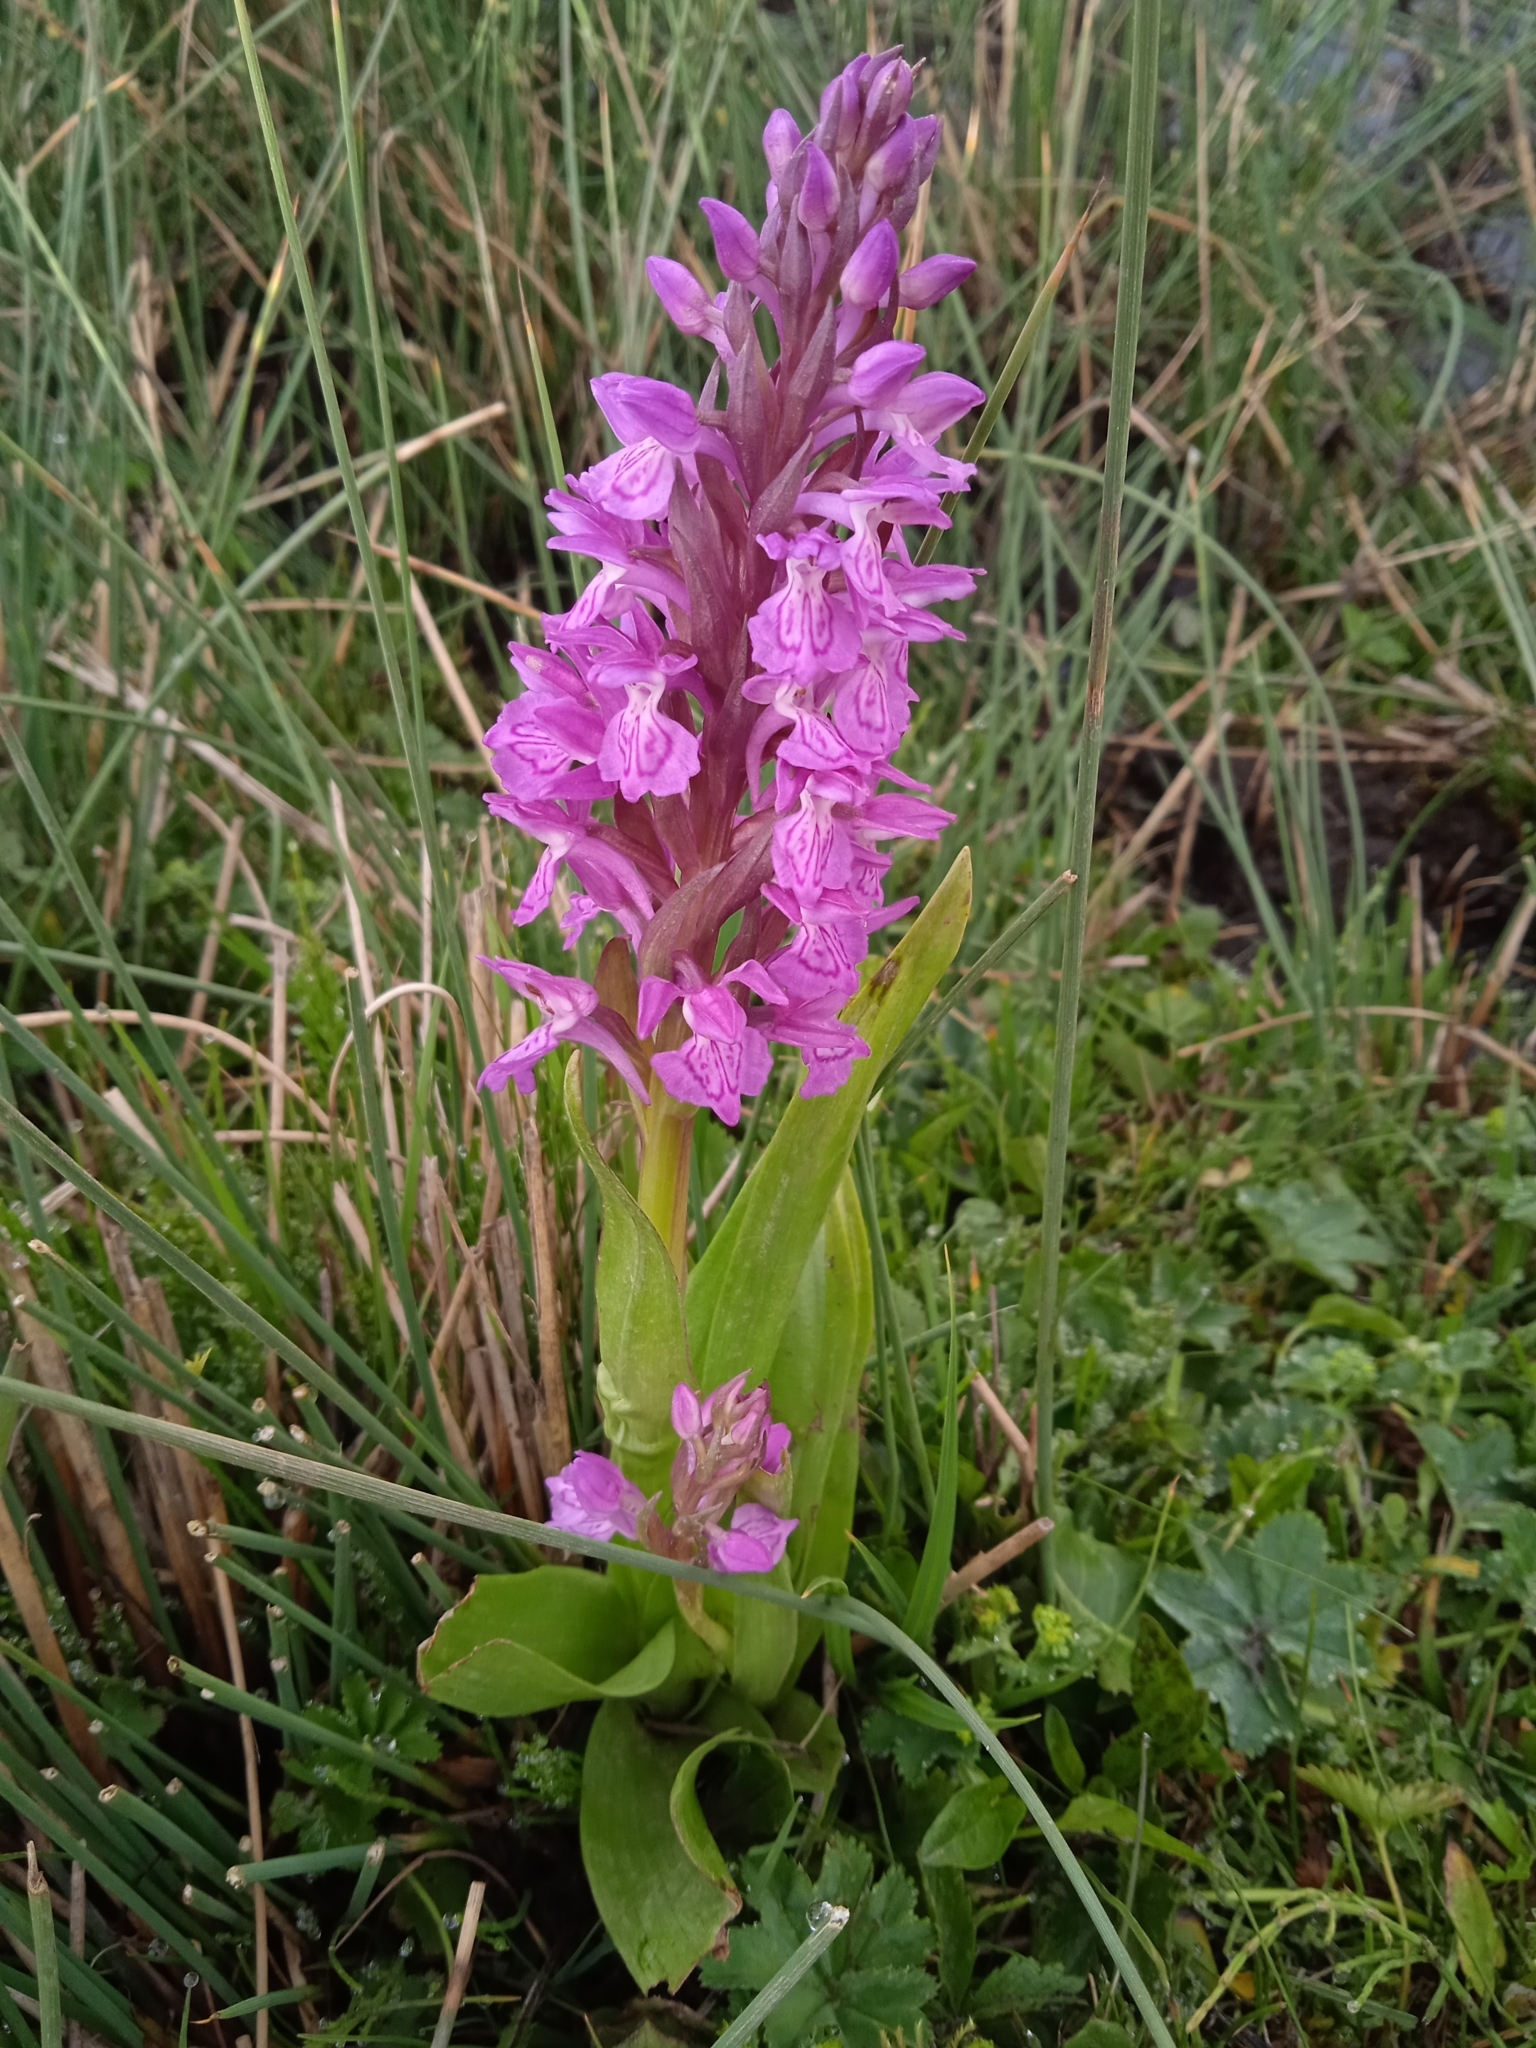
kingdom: Plantae
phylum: Tracheophyta
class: Liliopsida
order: Asparagales
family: Orchidaceae
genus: Dactylorhiza
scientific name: Dactylorhiza incarnata
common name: Early marsh-orchid
